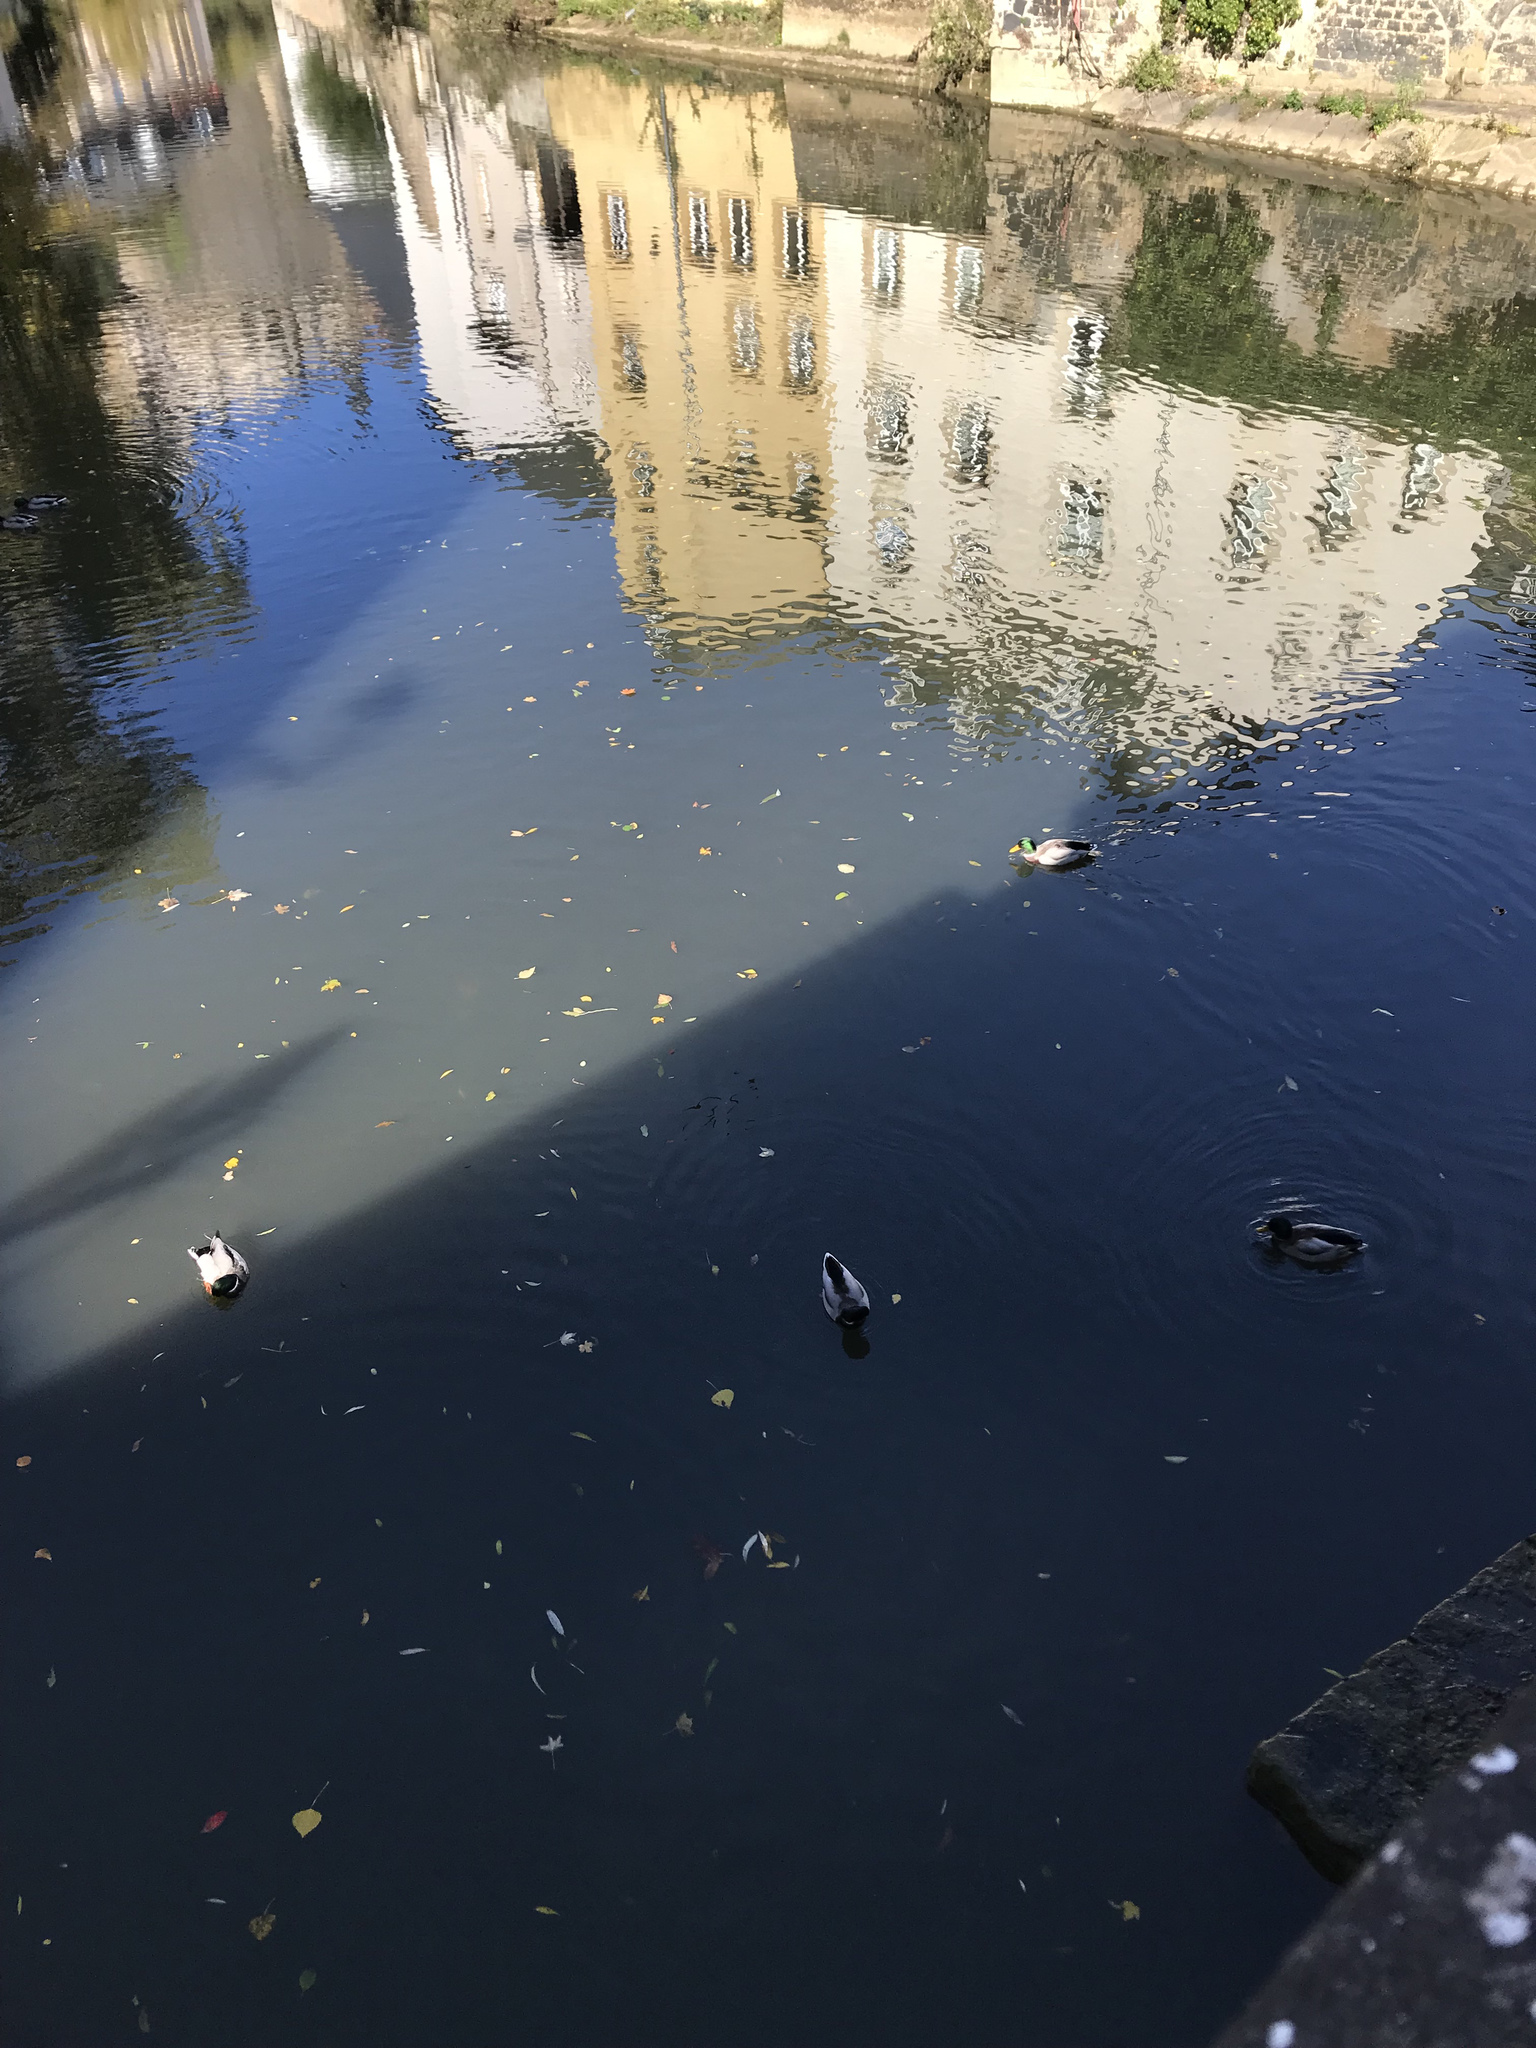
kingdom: Animalia
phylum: Chordata
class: Aves
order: Anseriformes
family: Anatidae
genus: Anas
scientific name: Anas platyrhynchos
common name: Mallard
